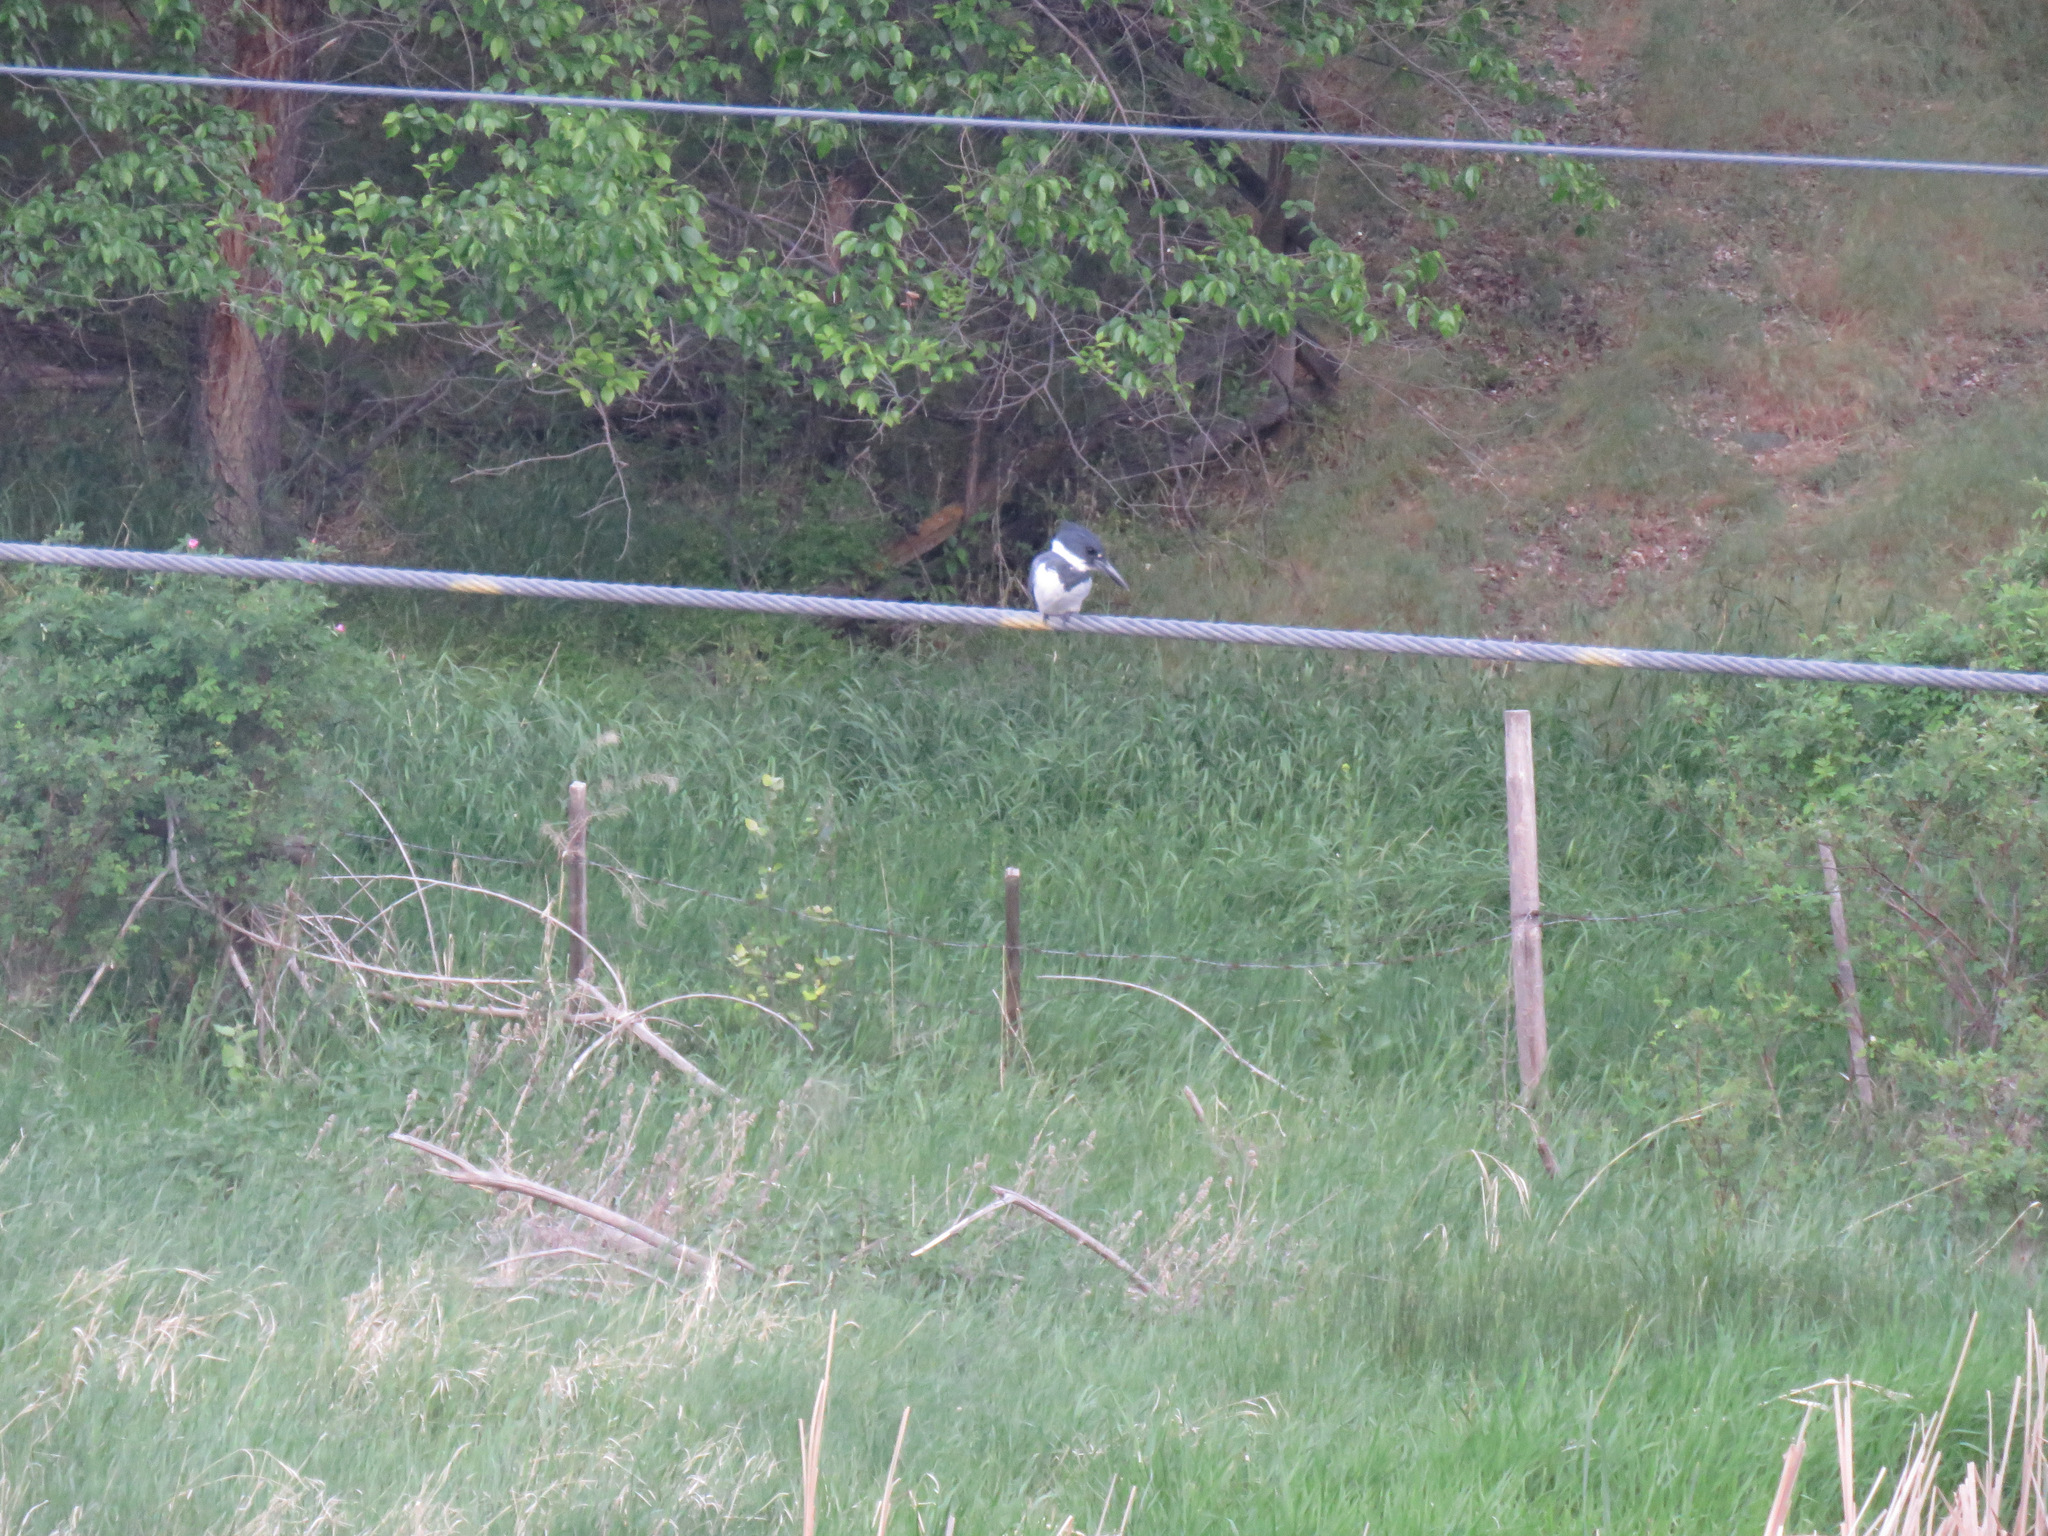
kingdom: Animalia
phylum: Chordata
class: Aves
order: Coraciiformes
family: Alcedinidae
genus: Megaceryle
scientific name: Megaceryle alcyon
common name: Belted kingfisher
